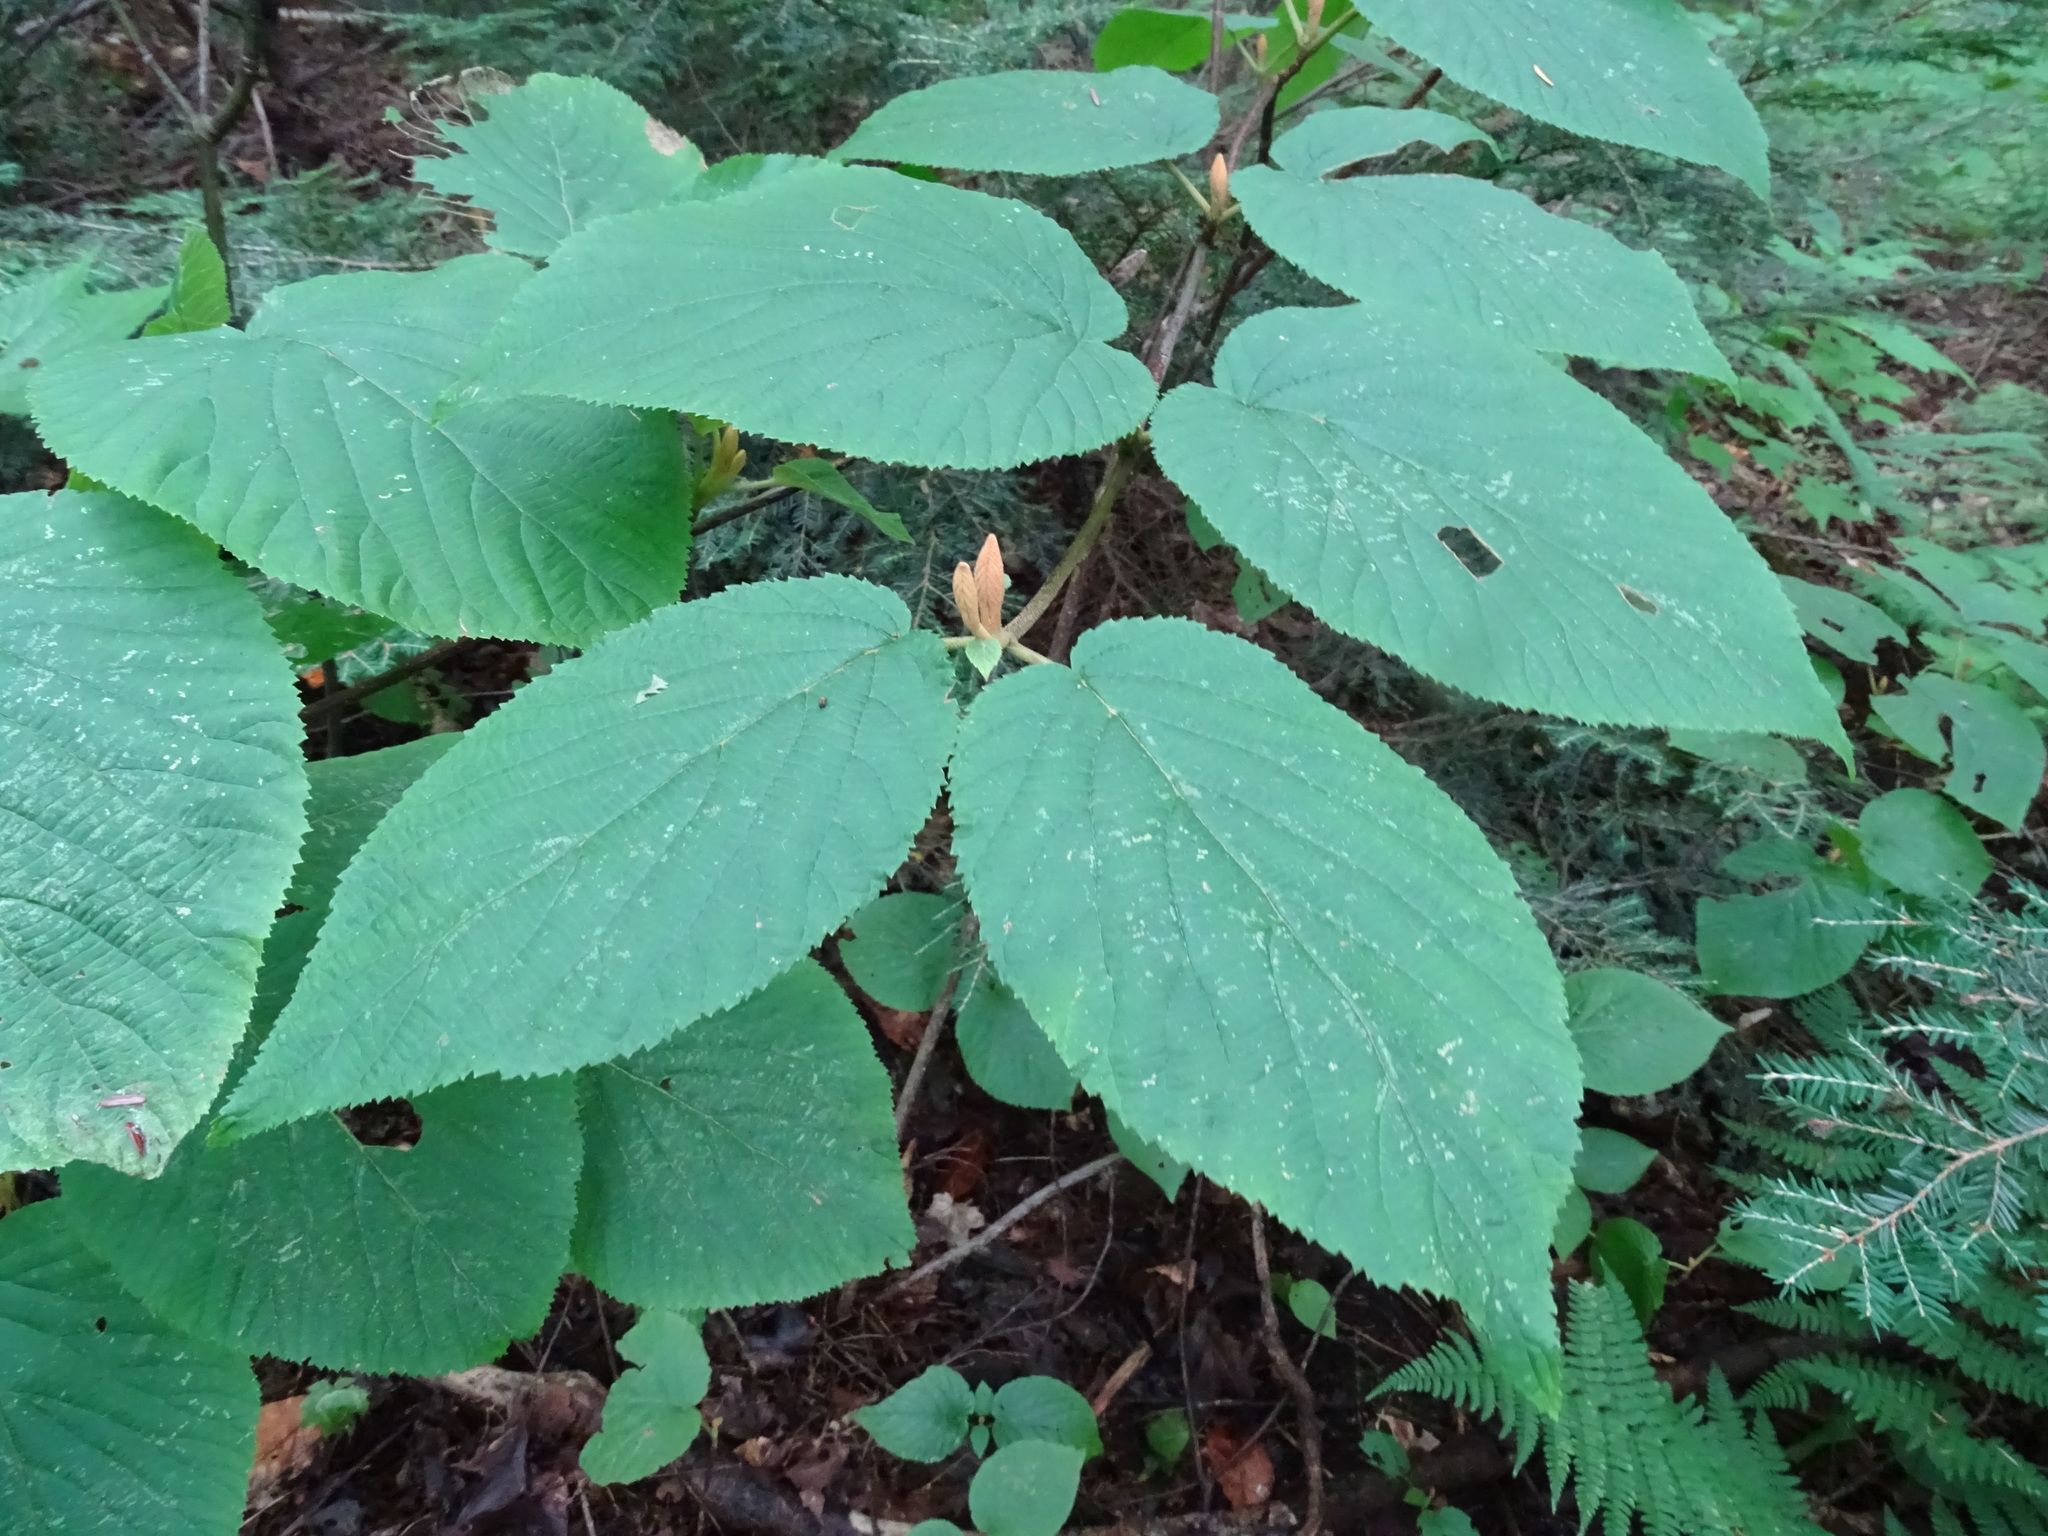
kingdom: Plantae
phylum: Tracheophyta
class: Magnoliopsida
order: Dipsacales
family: Viburnaceae
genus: Viburnum
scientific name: Viburnum lantanoides
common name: Hobblebush
